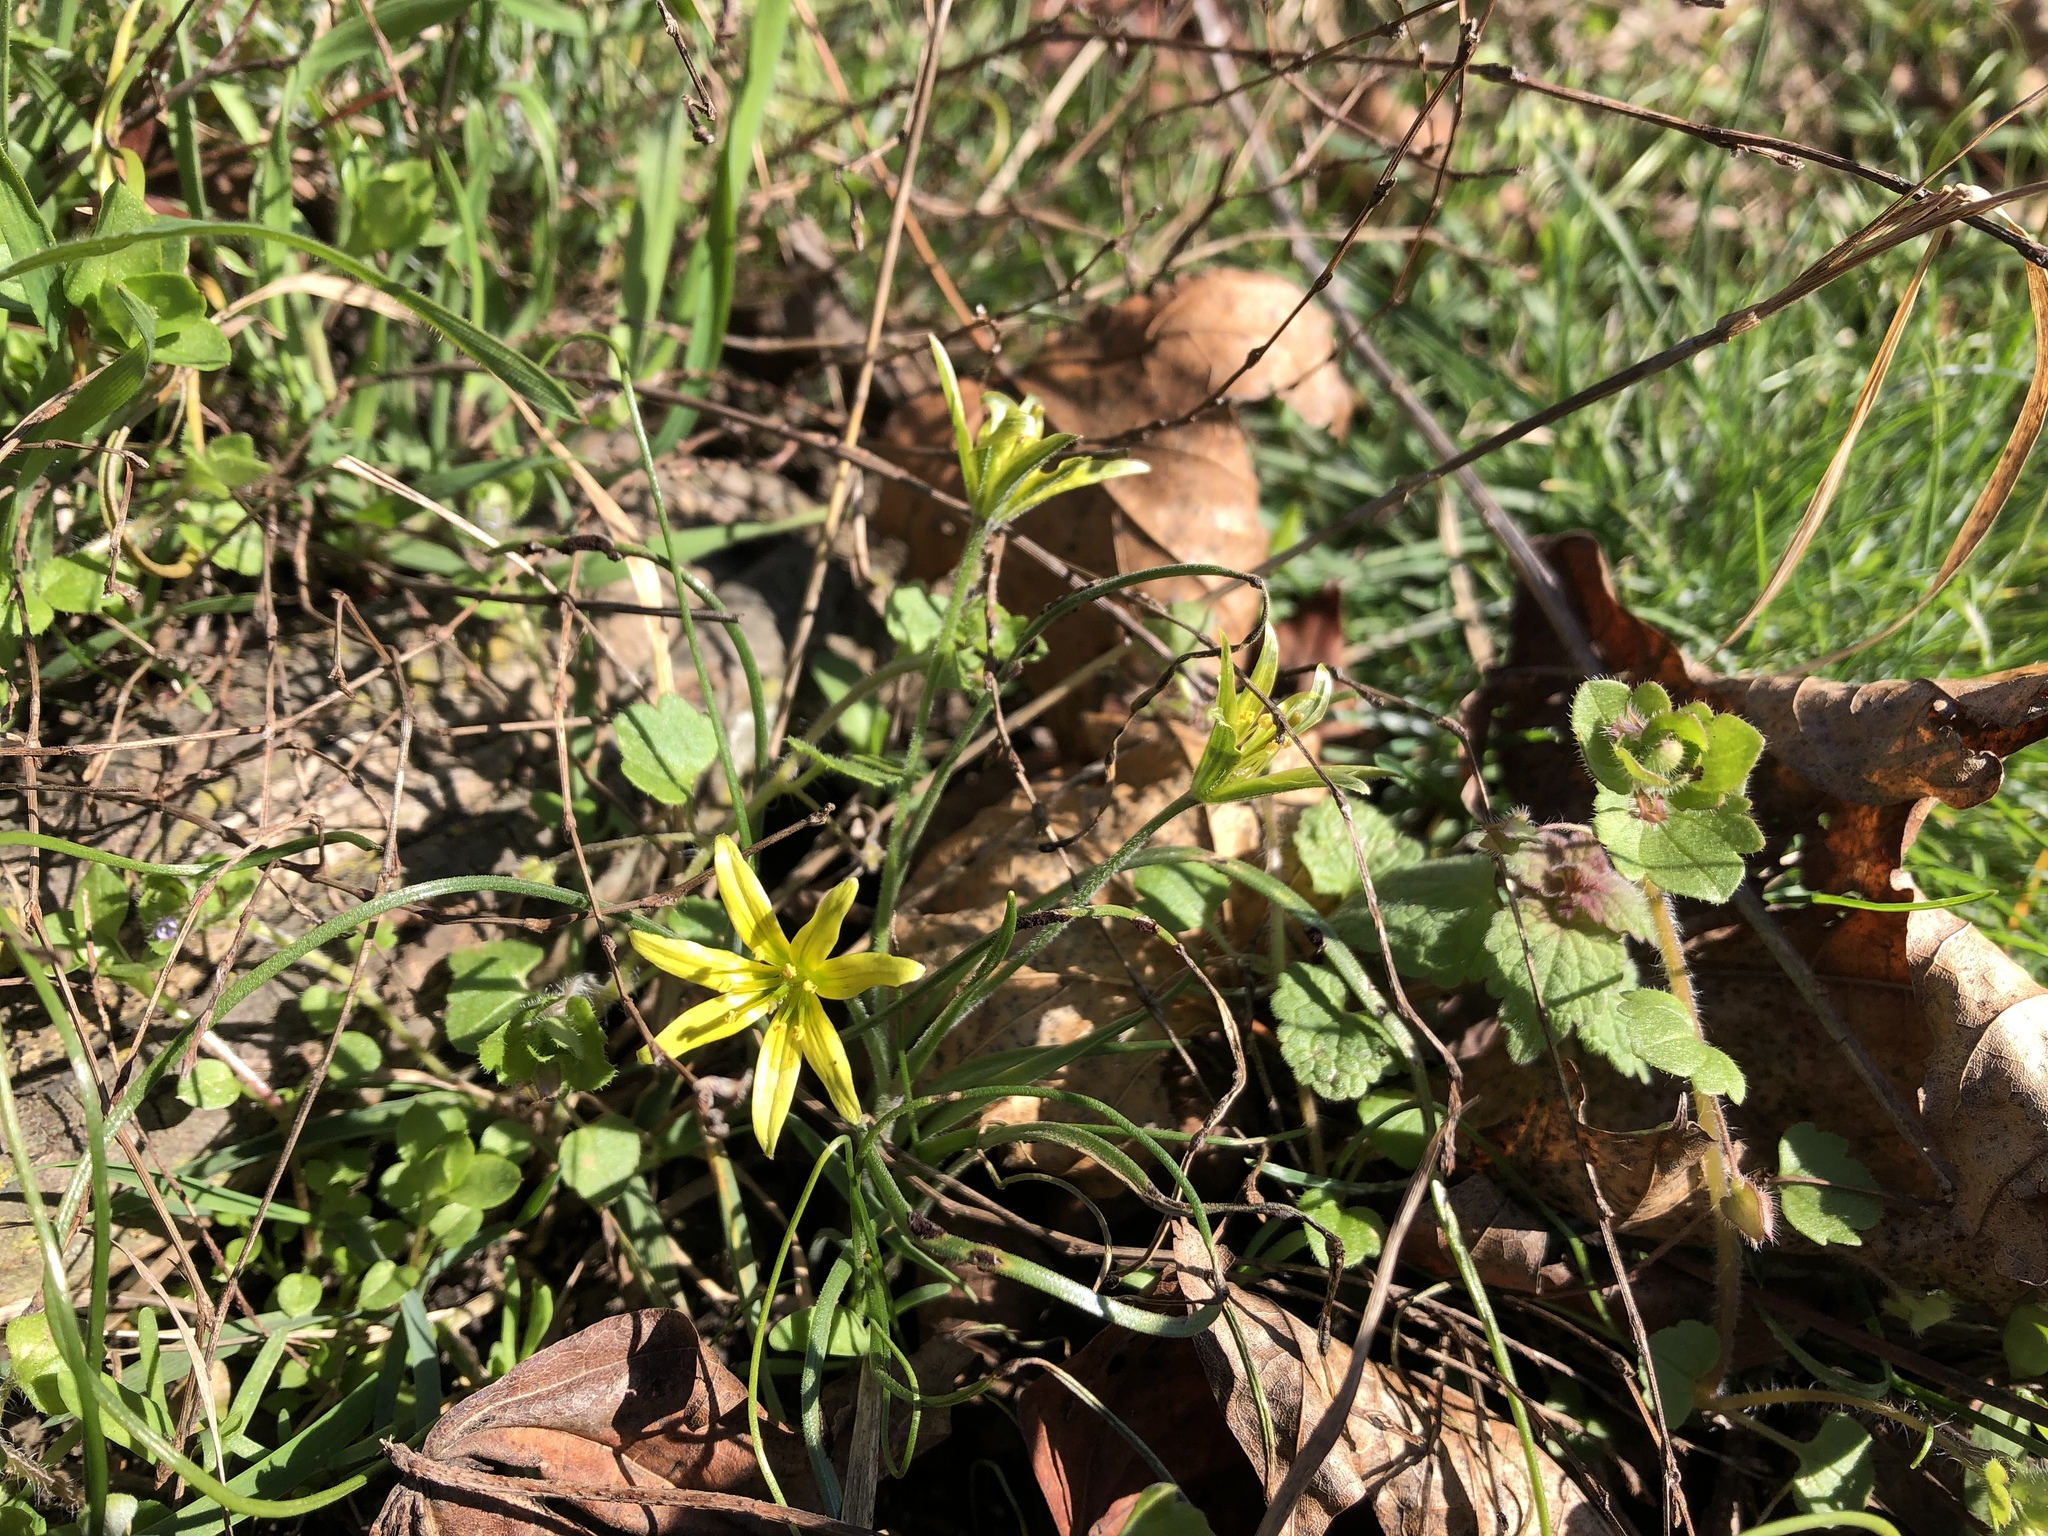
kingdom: Plantae
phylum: Tracheophyta
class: Liliopsida
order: Liliales
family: Liliaceae
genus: Gagea
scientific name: Gagea villosa
